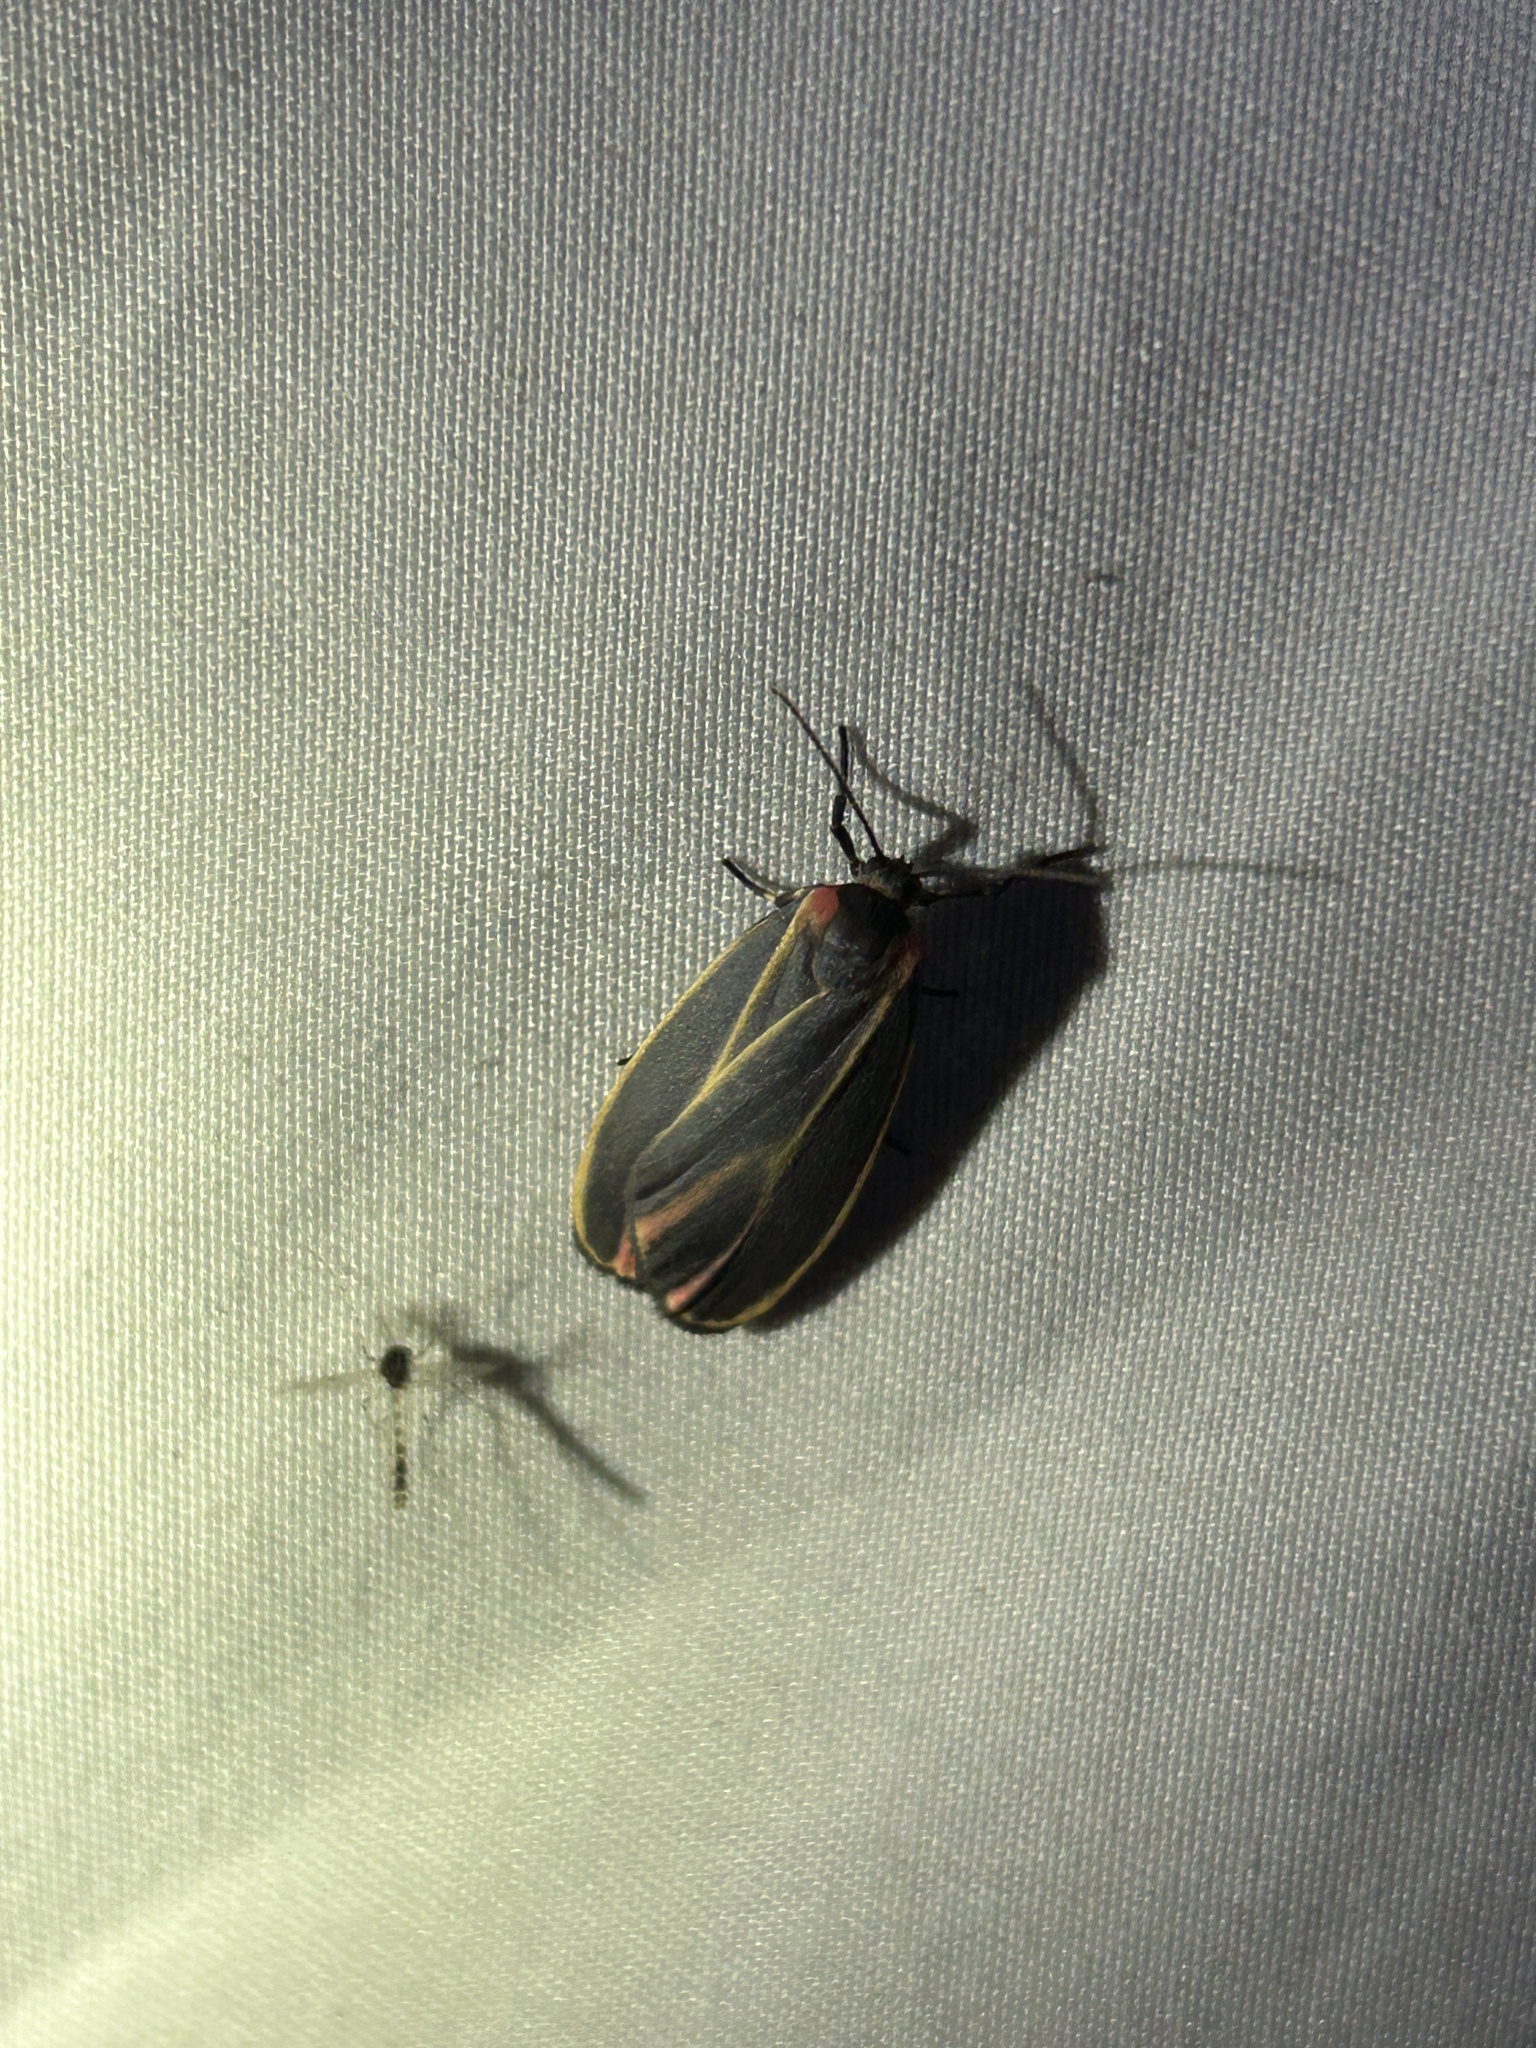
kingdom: Animalia
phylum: Arthropoda
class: Insecta
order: Lepidoptera
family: Erebidae
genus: Hypoprepia
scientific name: Hypoprepia fucosa
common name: Painted lichen moth
